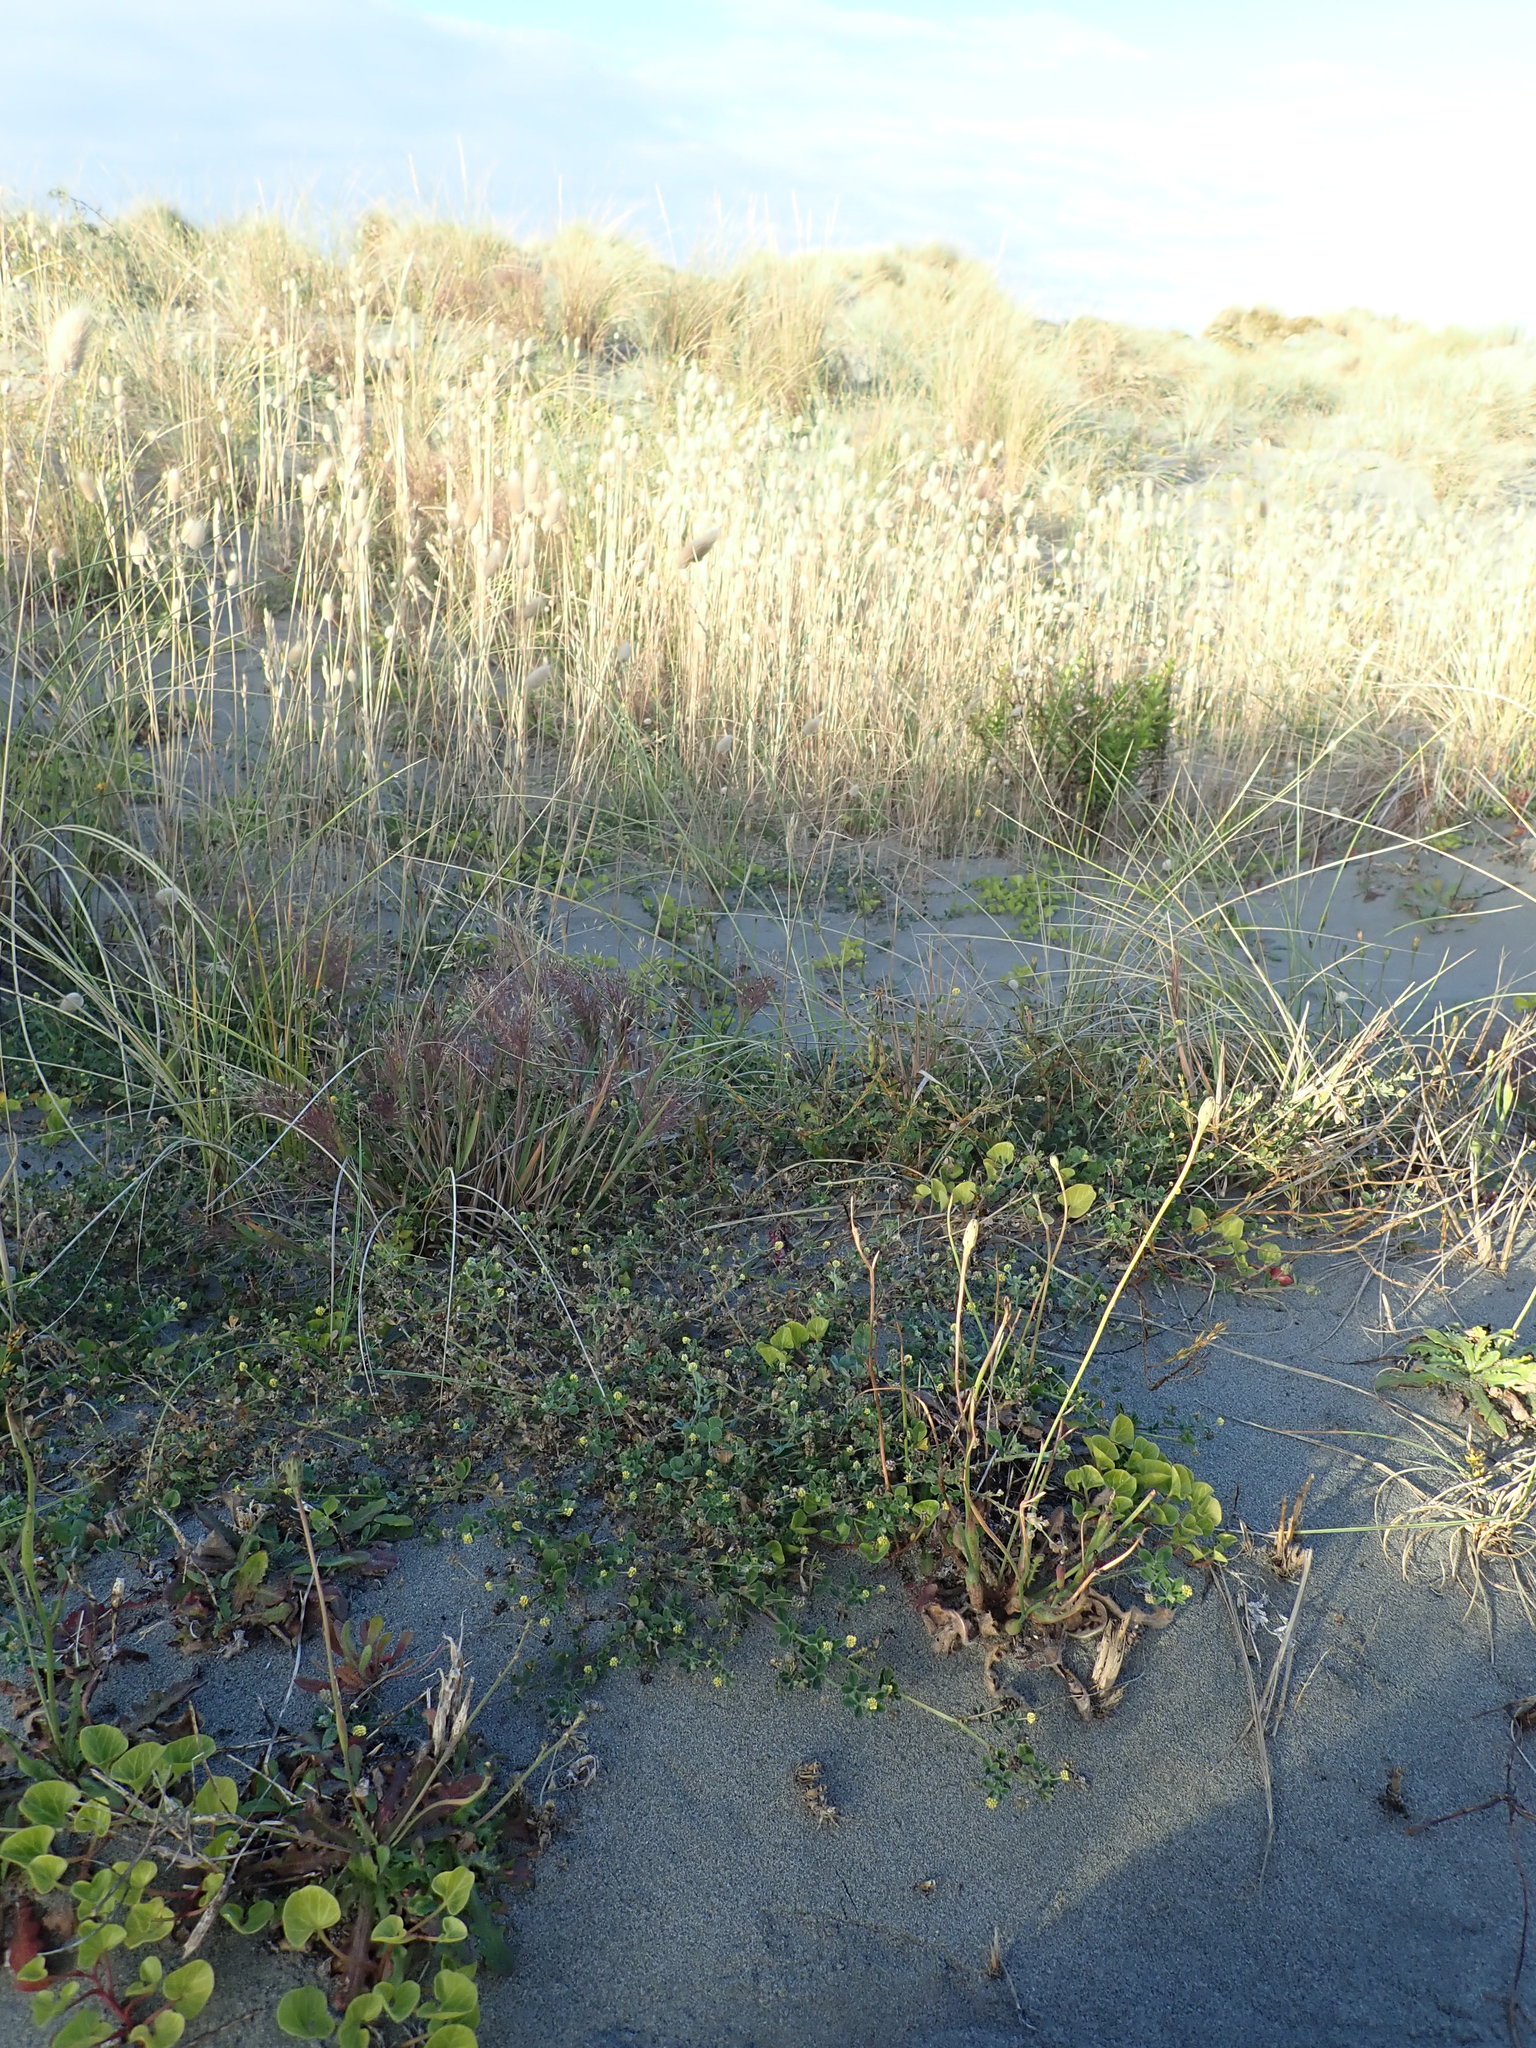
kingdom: Plantae
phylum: Tracheophyta
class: Magnoliopsida
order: Fabales
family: Fabaceae
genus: Medicago
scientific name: Medicago lupulina
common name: Black medick
